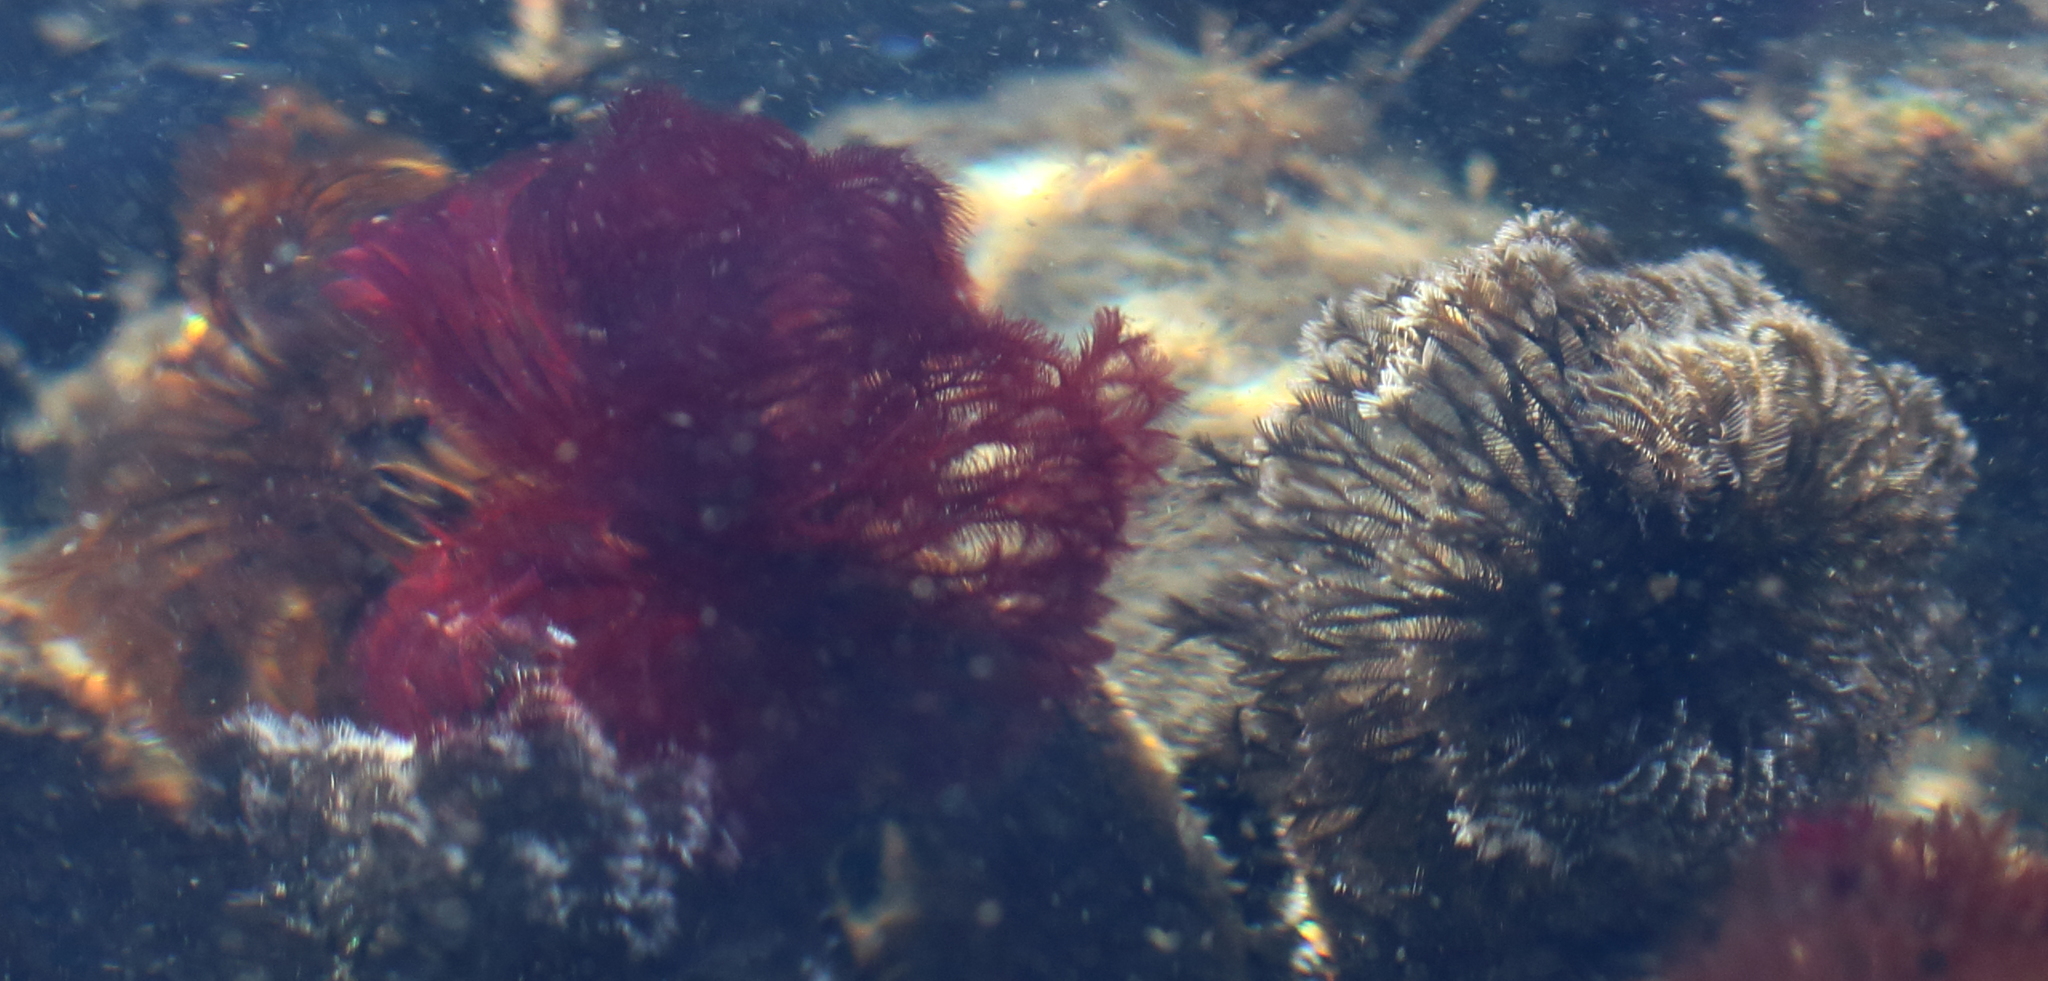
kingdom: Animalia
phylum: Annelida
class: Polychaeta
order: Sabellida
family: Sabellidae
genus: Schizobranchia
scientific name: Schizobranchia insignis
